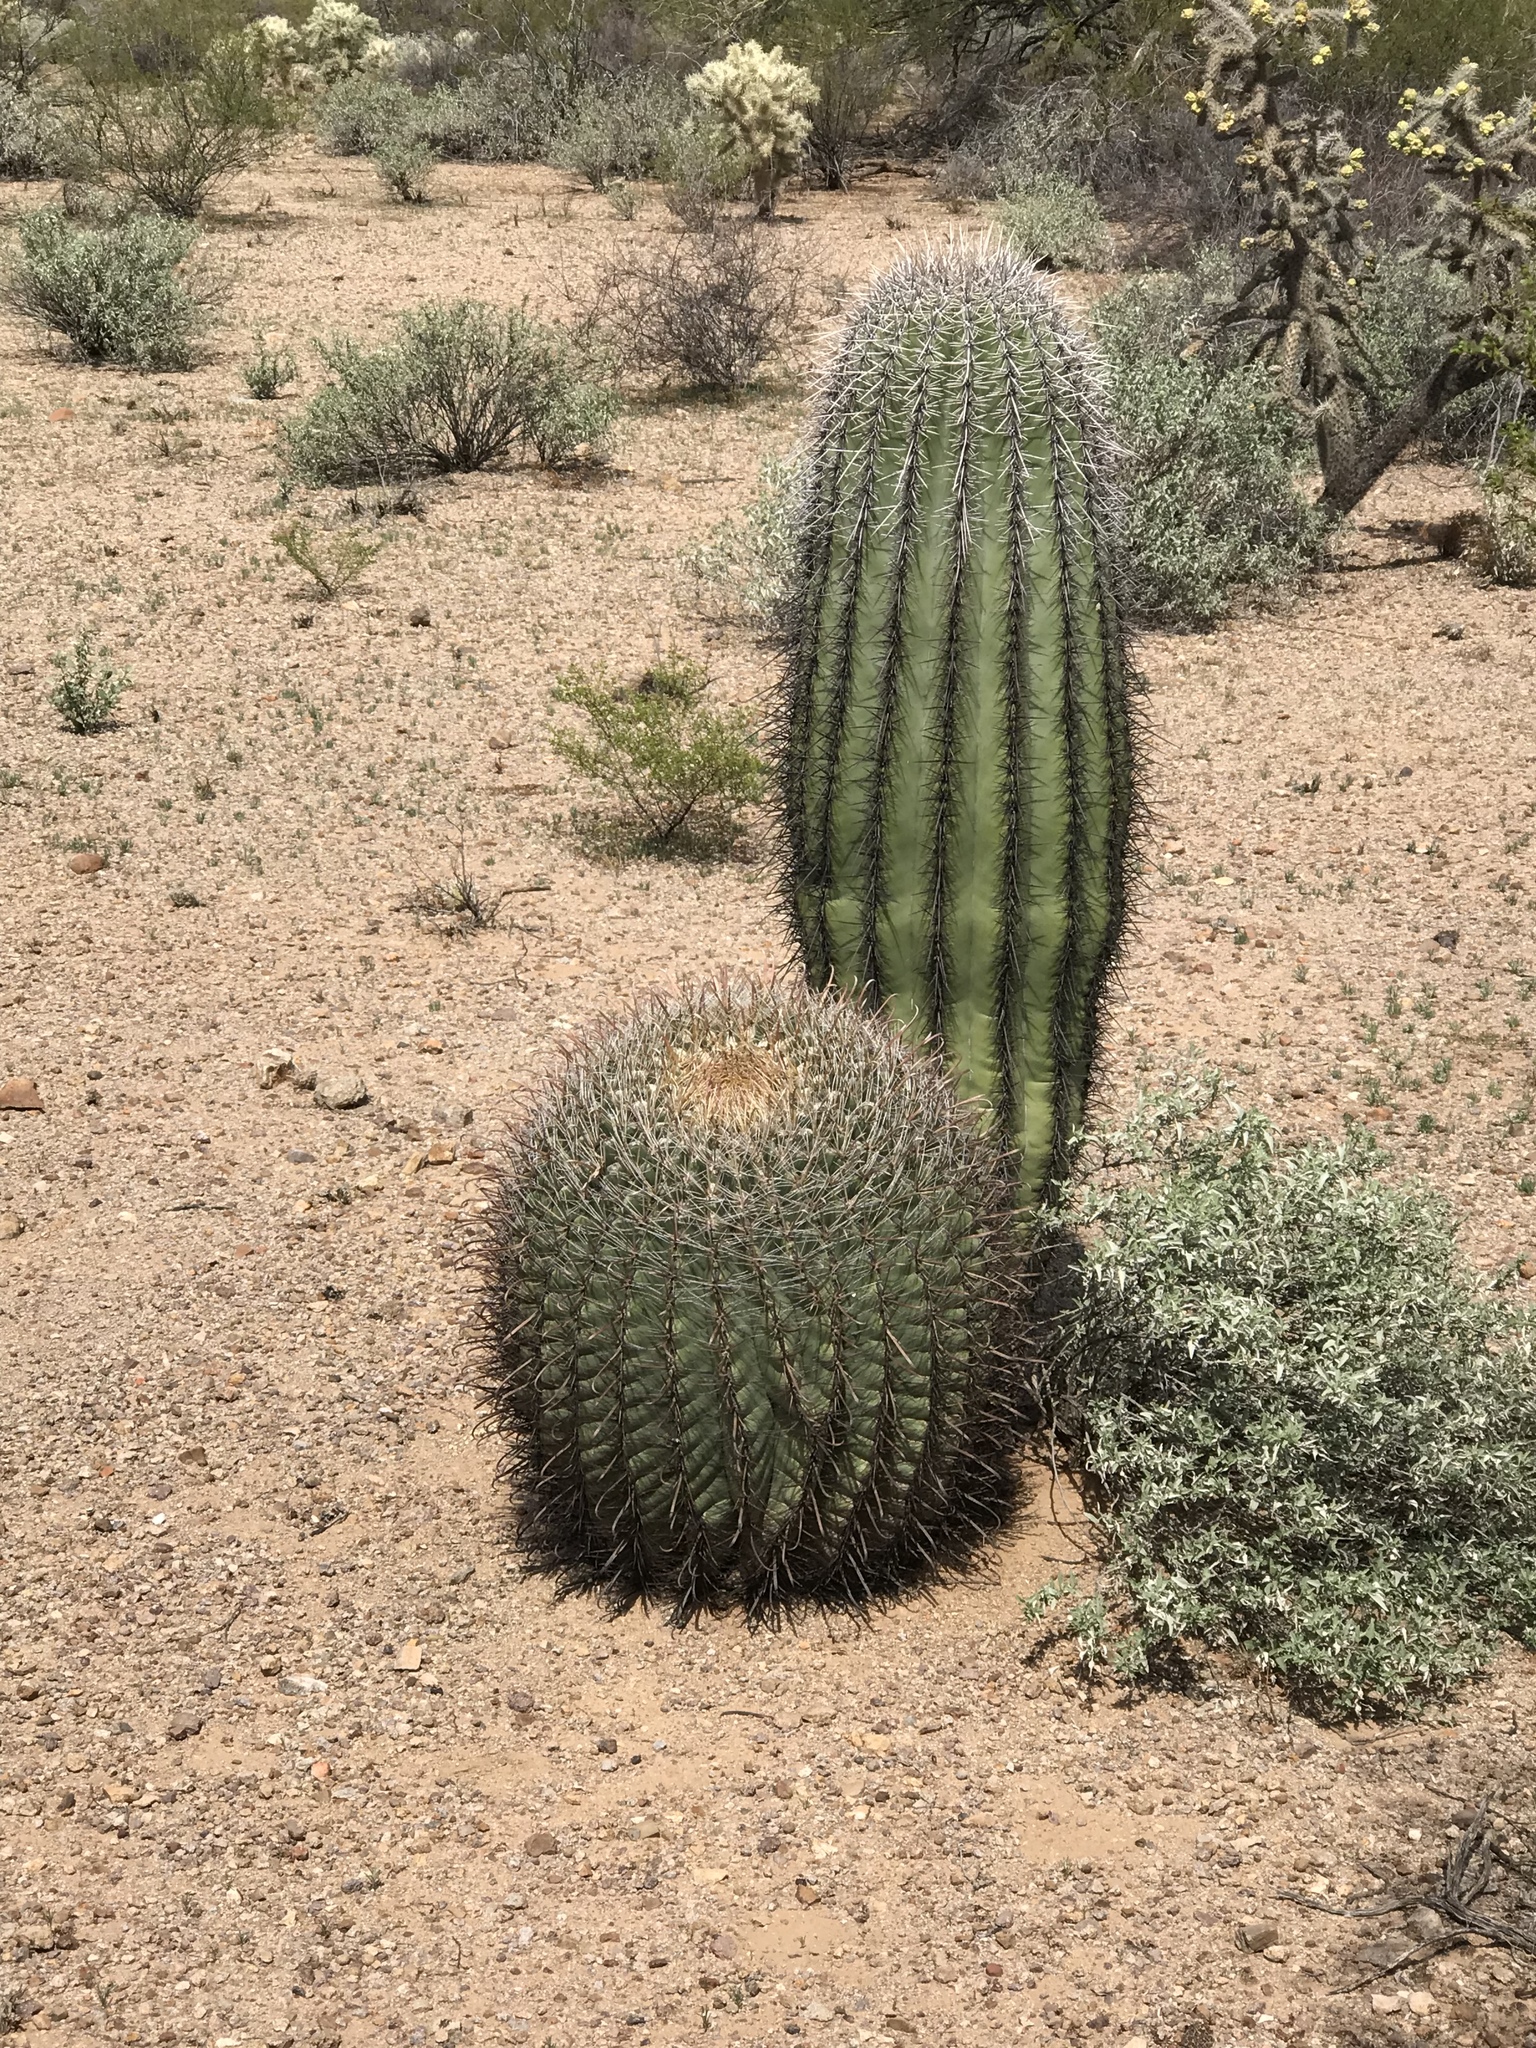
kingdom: Plantae
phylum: Tracheophyta
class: Magnoliopsida
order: Caryophyllales
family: Cactaceae
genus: Ferocactus
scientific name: Ferocactus wislizeni
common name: Candy barrel cactus
